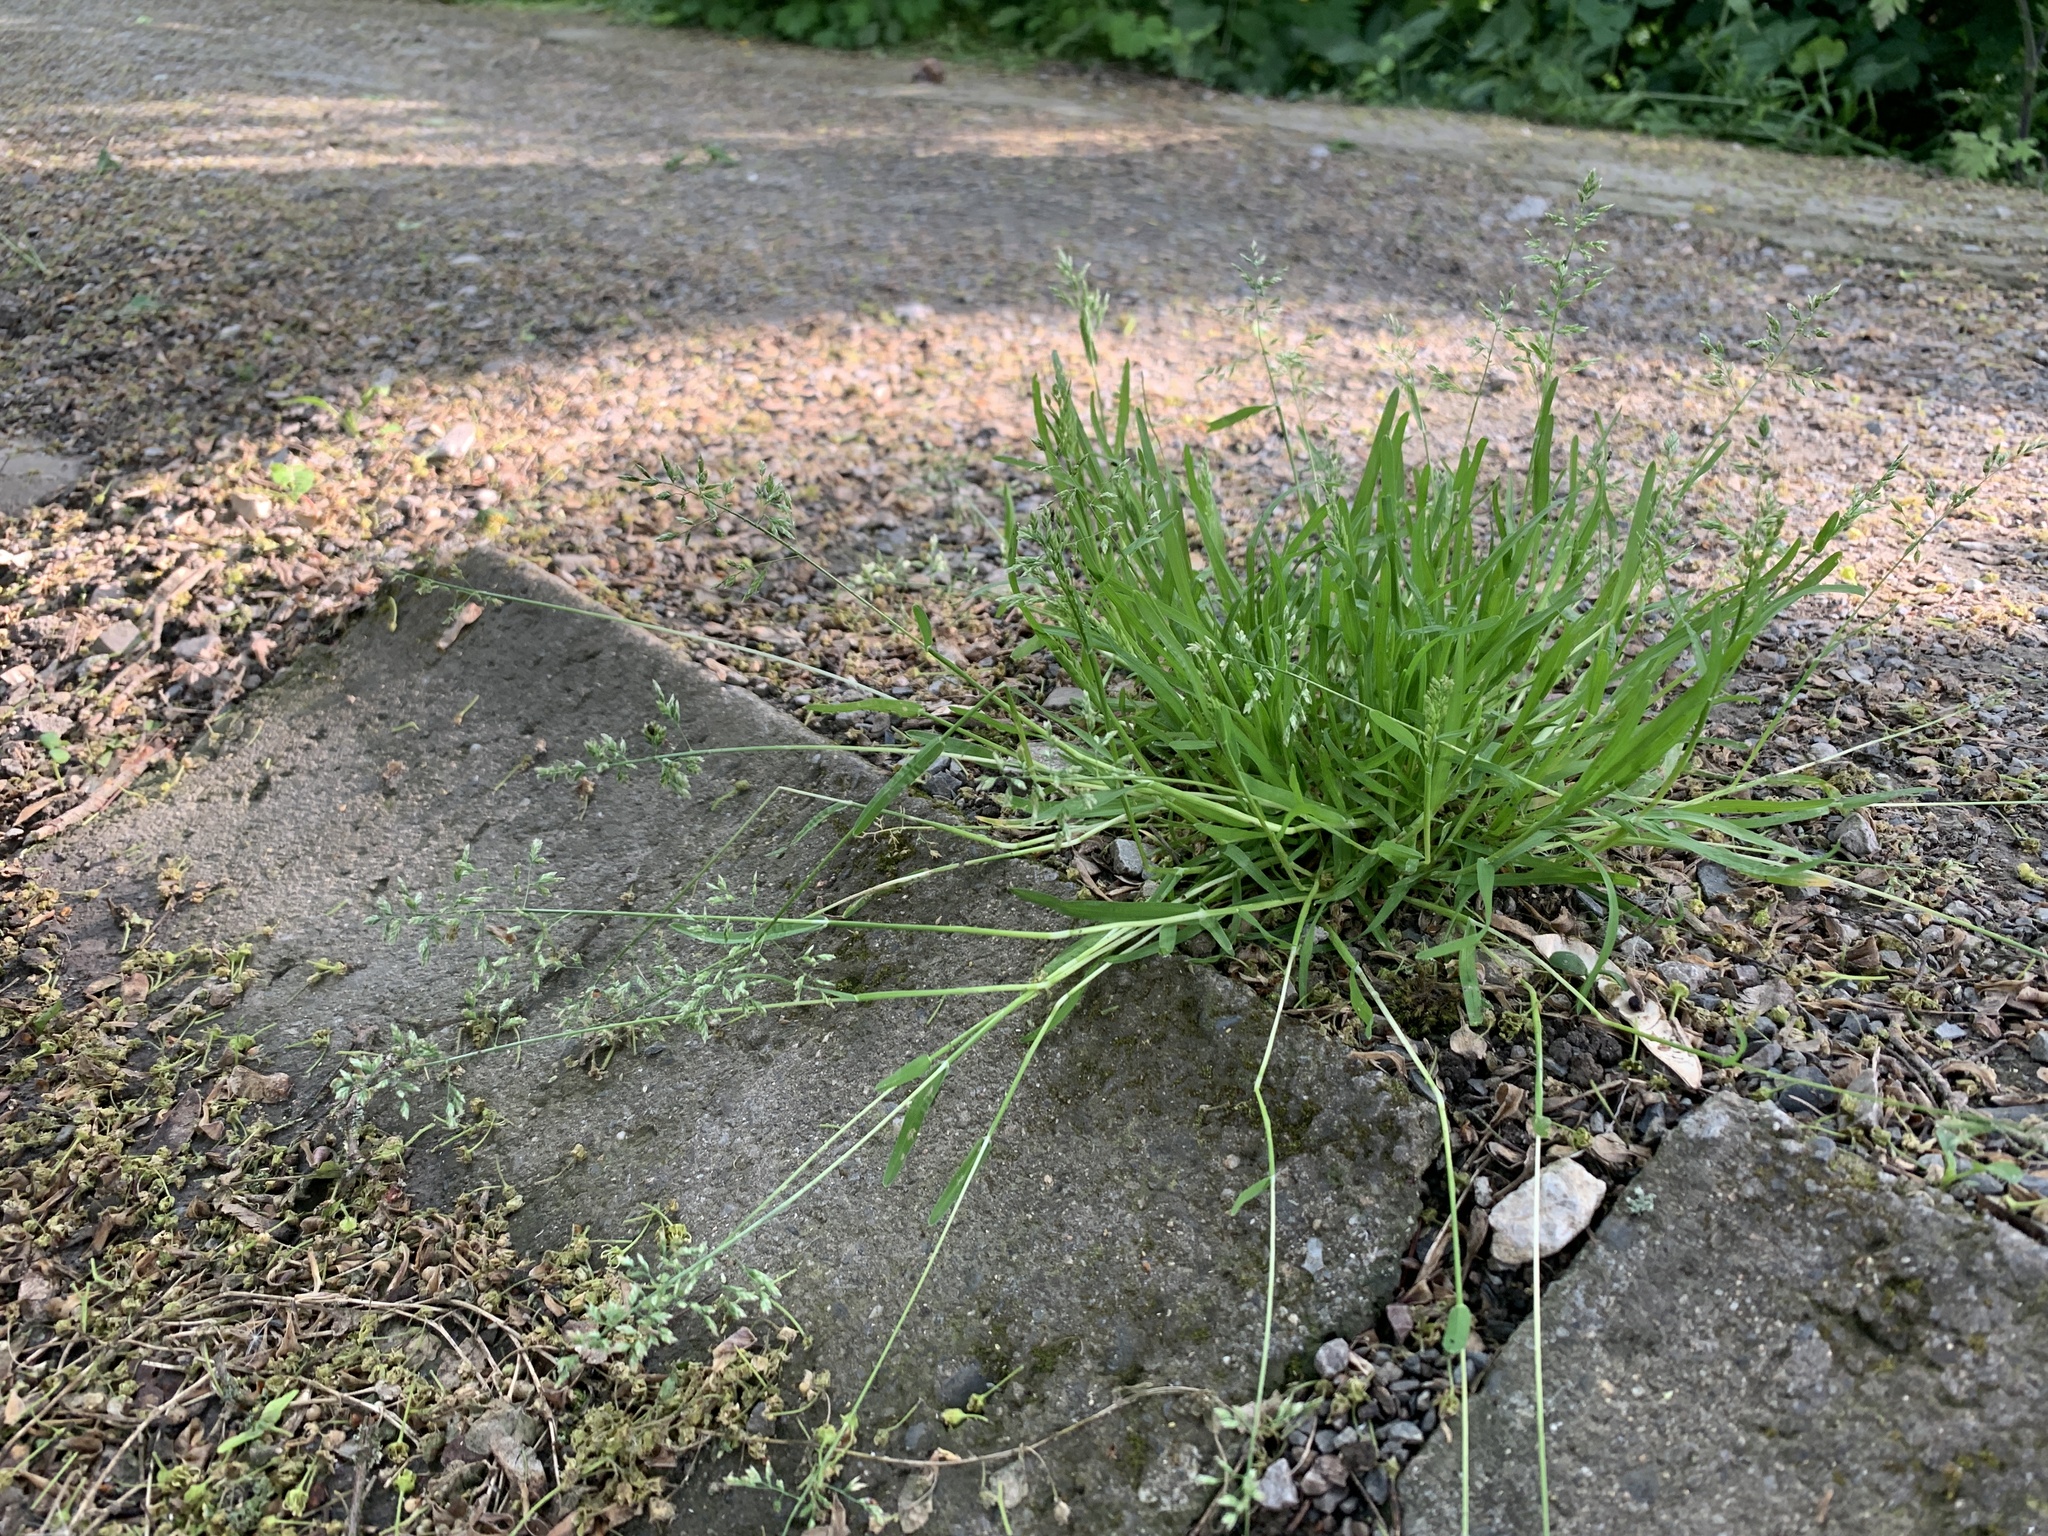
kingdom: Plantae
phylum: Tracheophyta
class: Liliopsida
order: Poales
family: Poaceae
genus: Poa
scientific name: Poa annua
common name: Annual bluegrass
